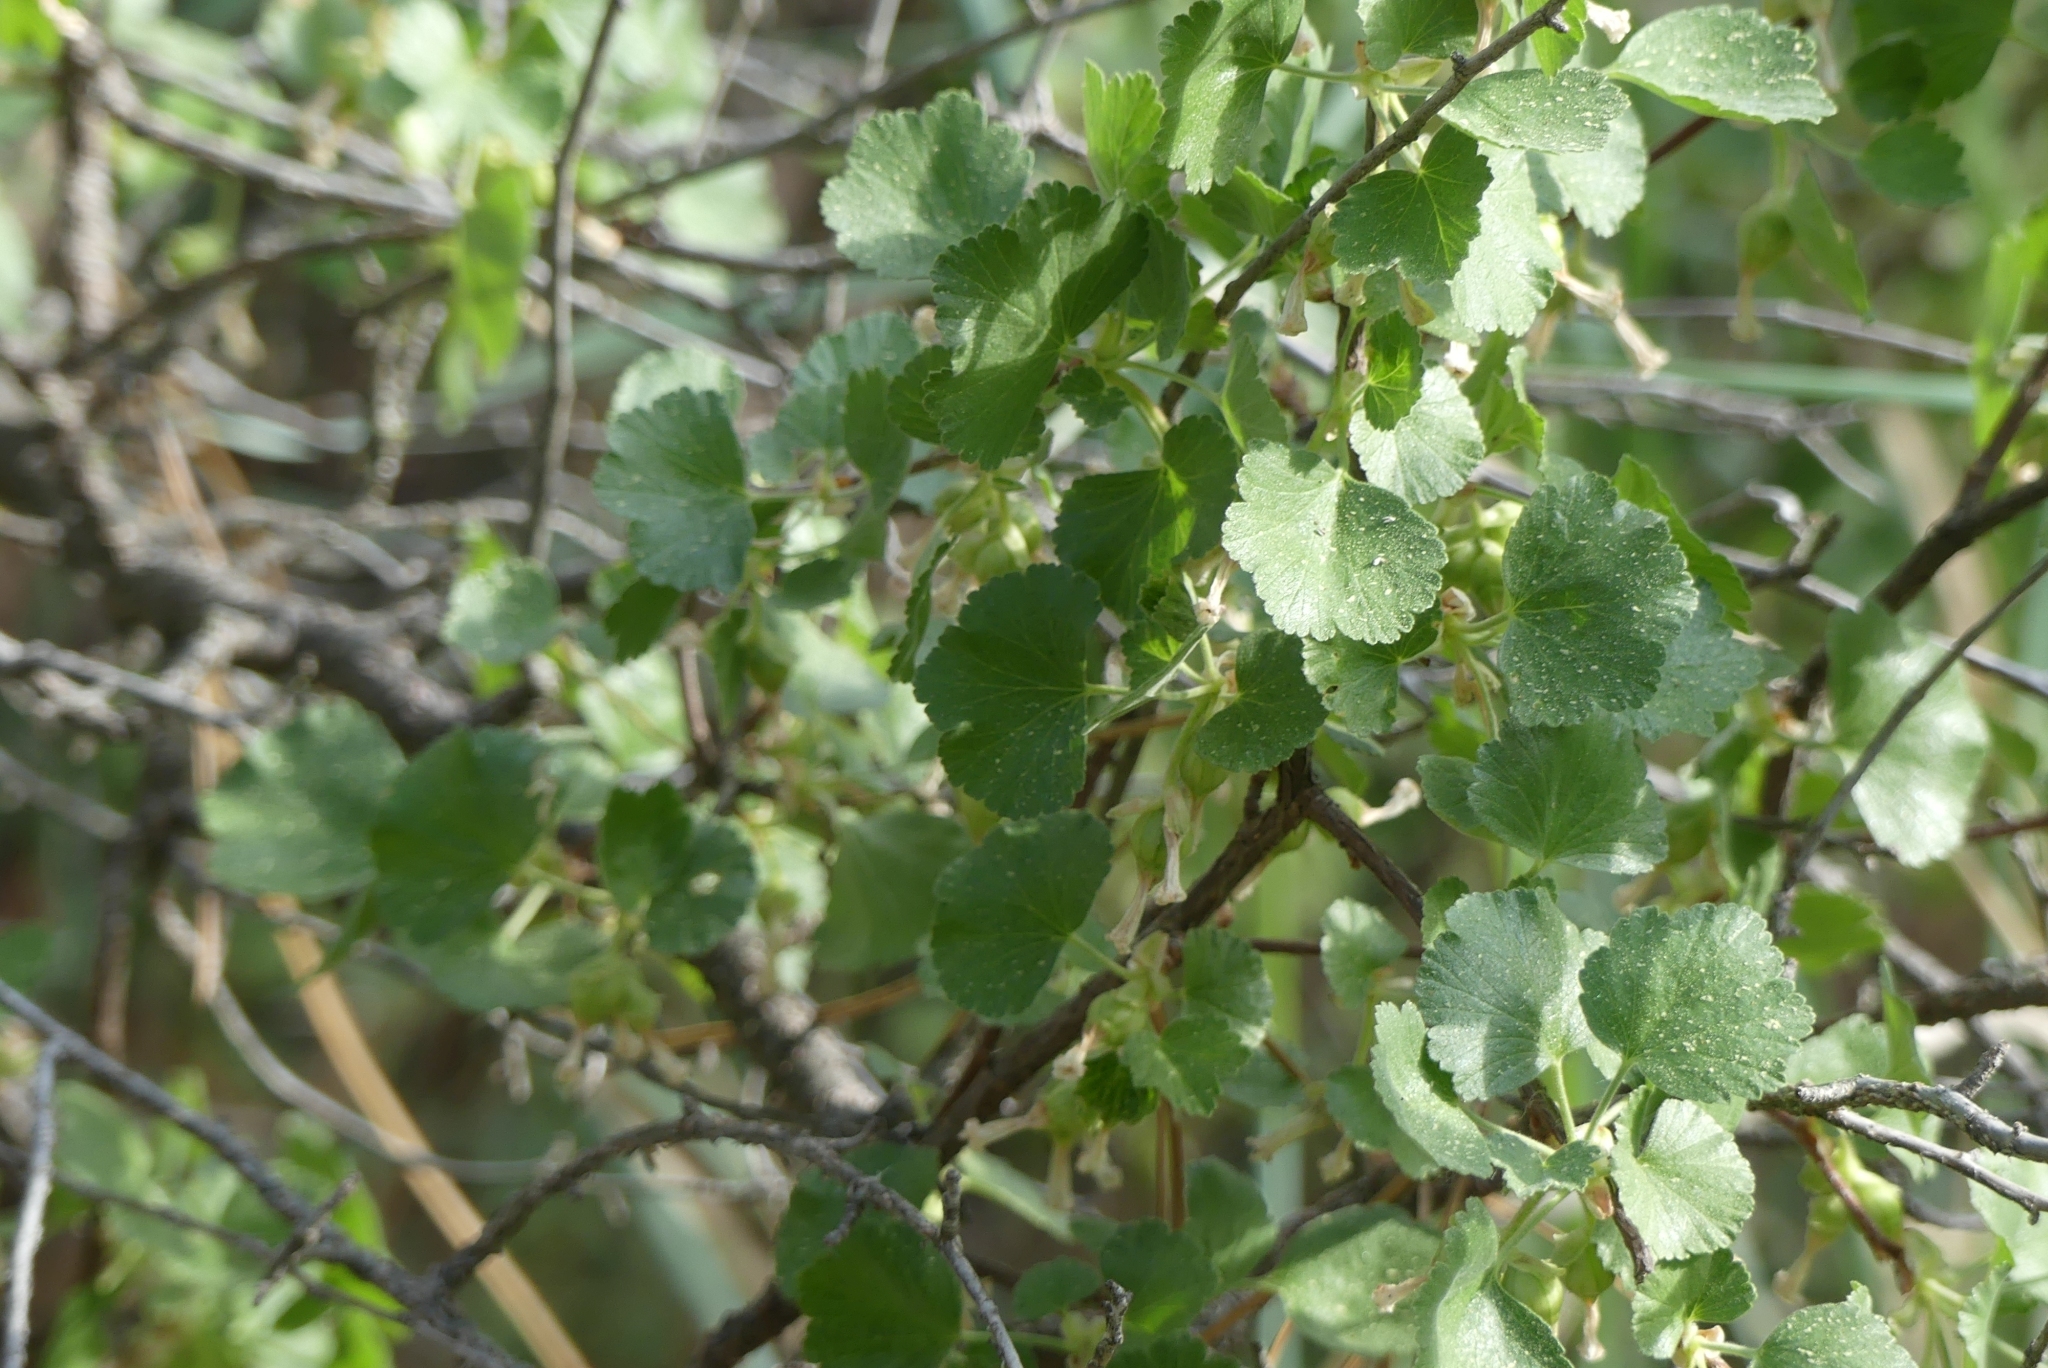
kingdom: Plantae
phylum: Tracheophyta
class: Magnoliopsida
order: Saxifragales
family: Grossulariaceae
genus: Ribes
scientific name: Ribes cereum
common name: Wax currant
